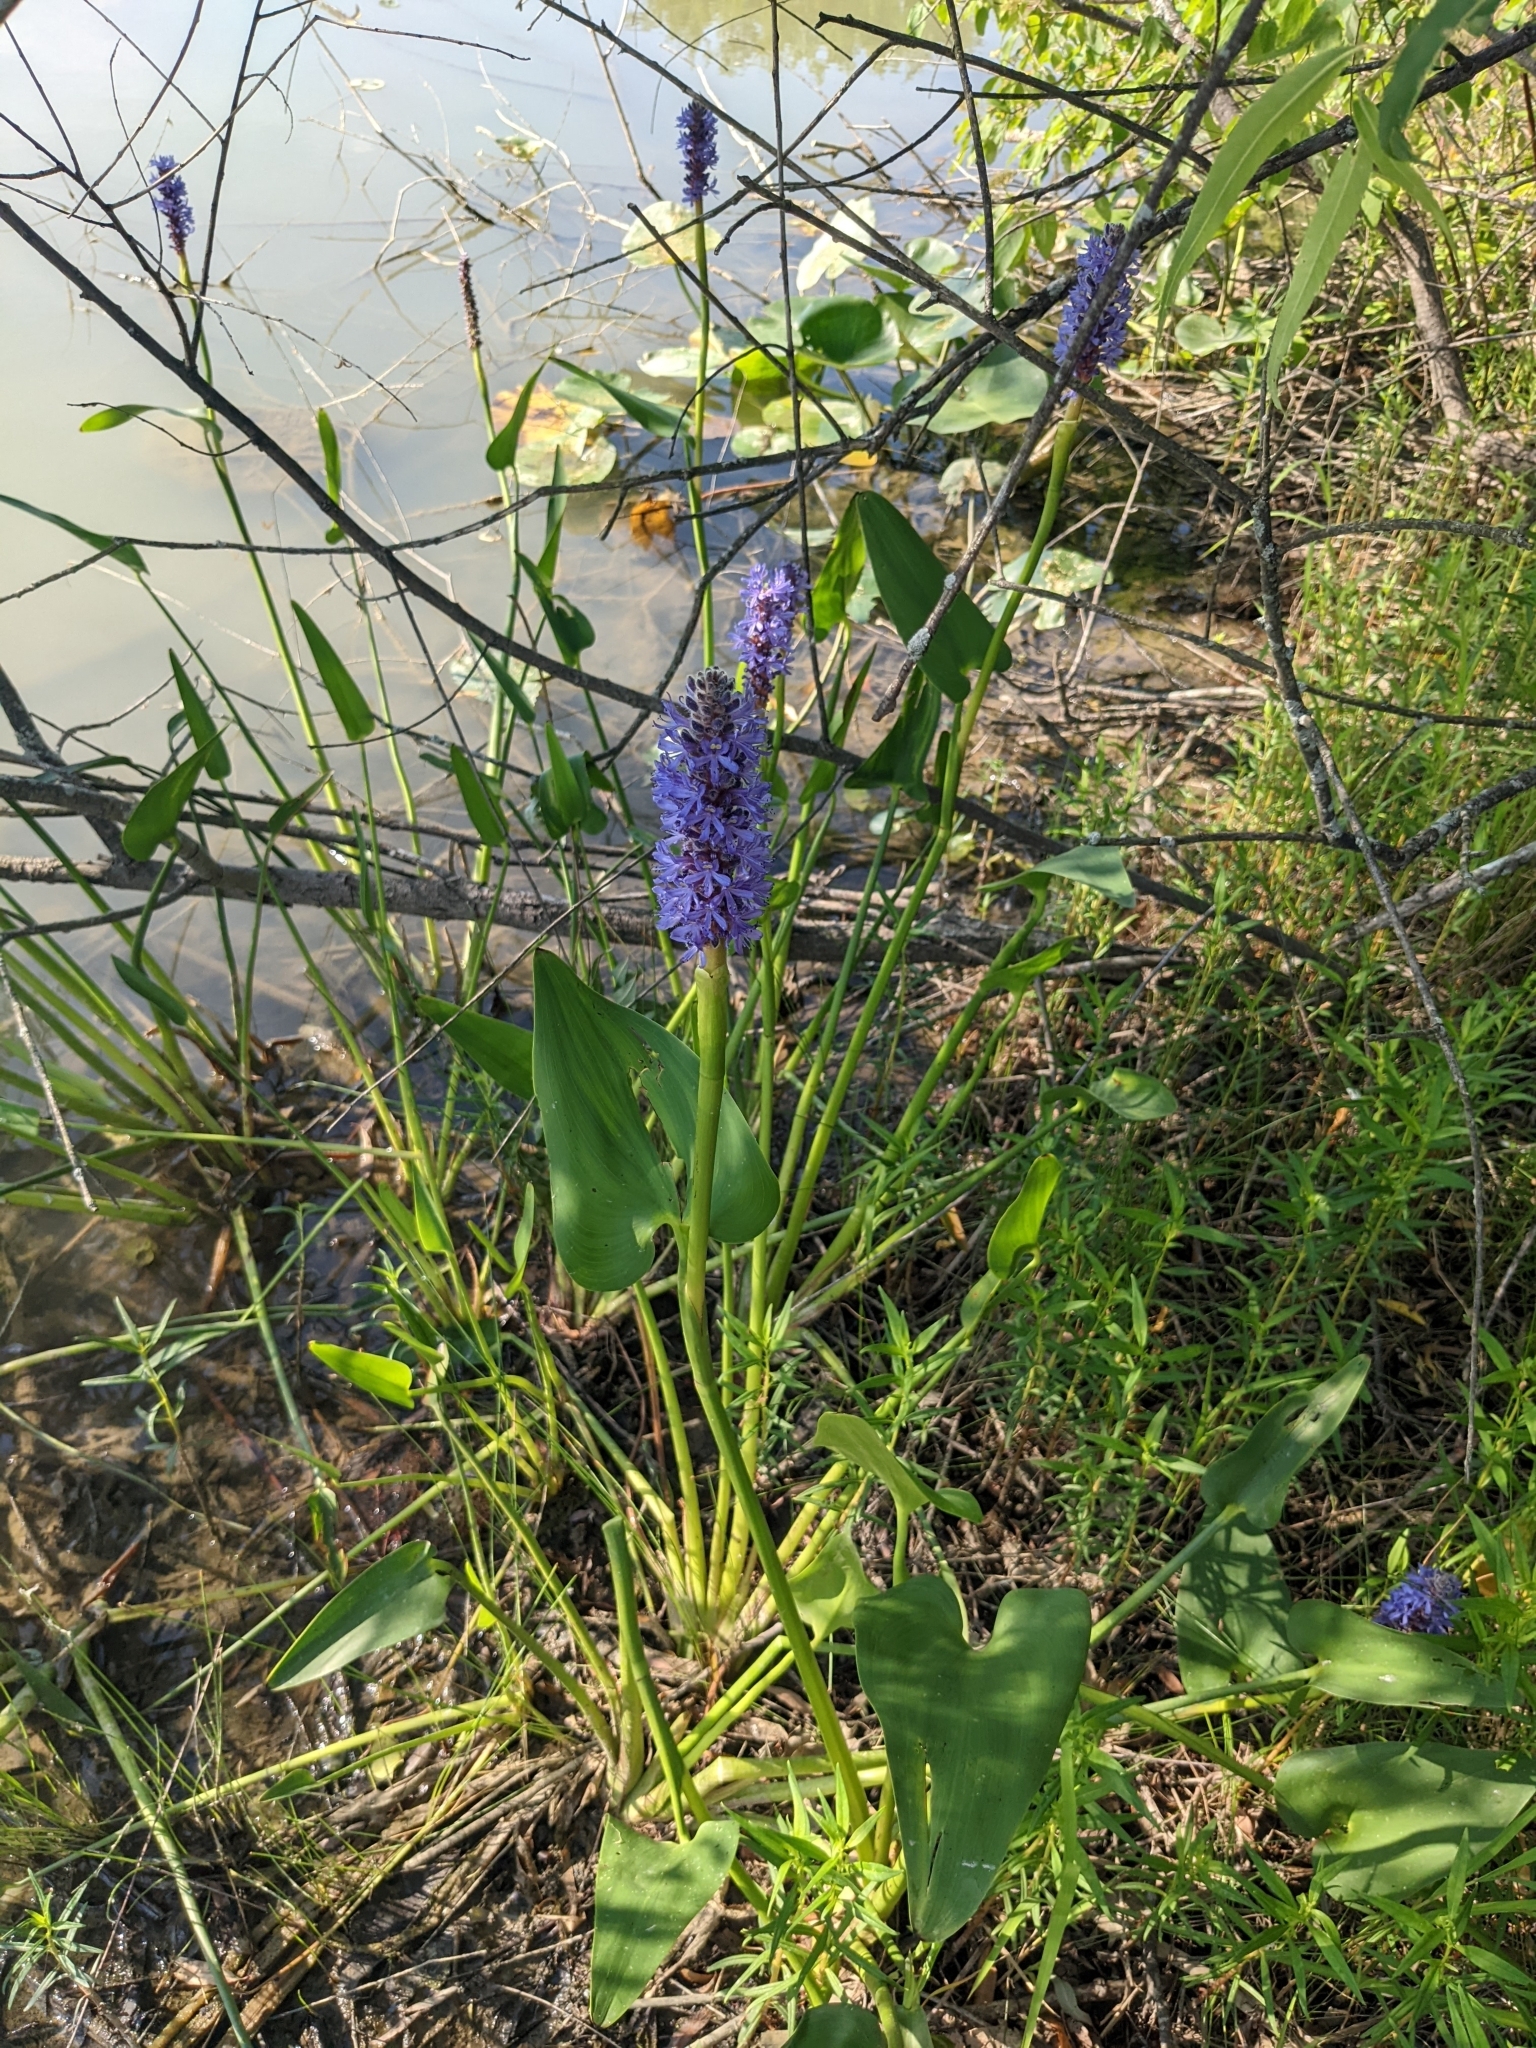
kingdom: Plantae
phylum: Tracheophyta
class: Liliopsida
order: Commelinales
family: Pontederiaceae
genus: Pontederia
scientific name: Pontederia cordata
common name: Pickerelweed
